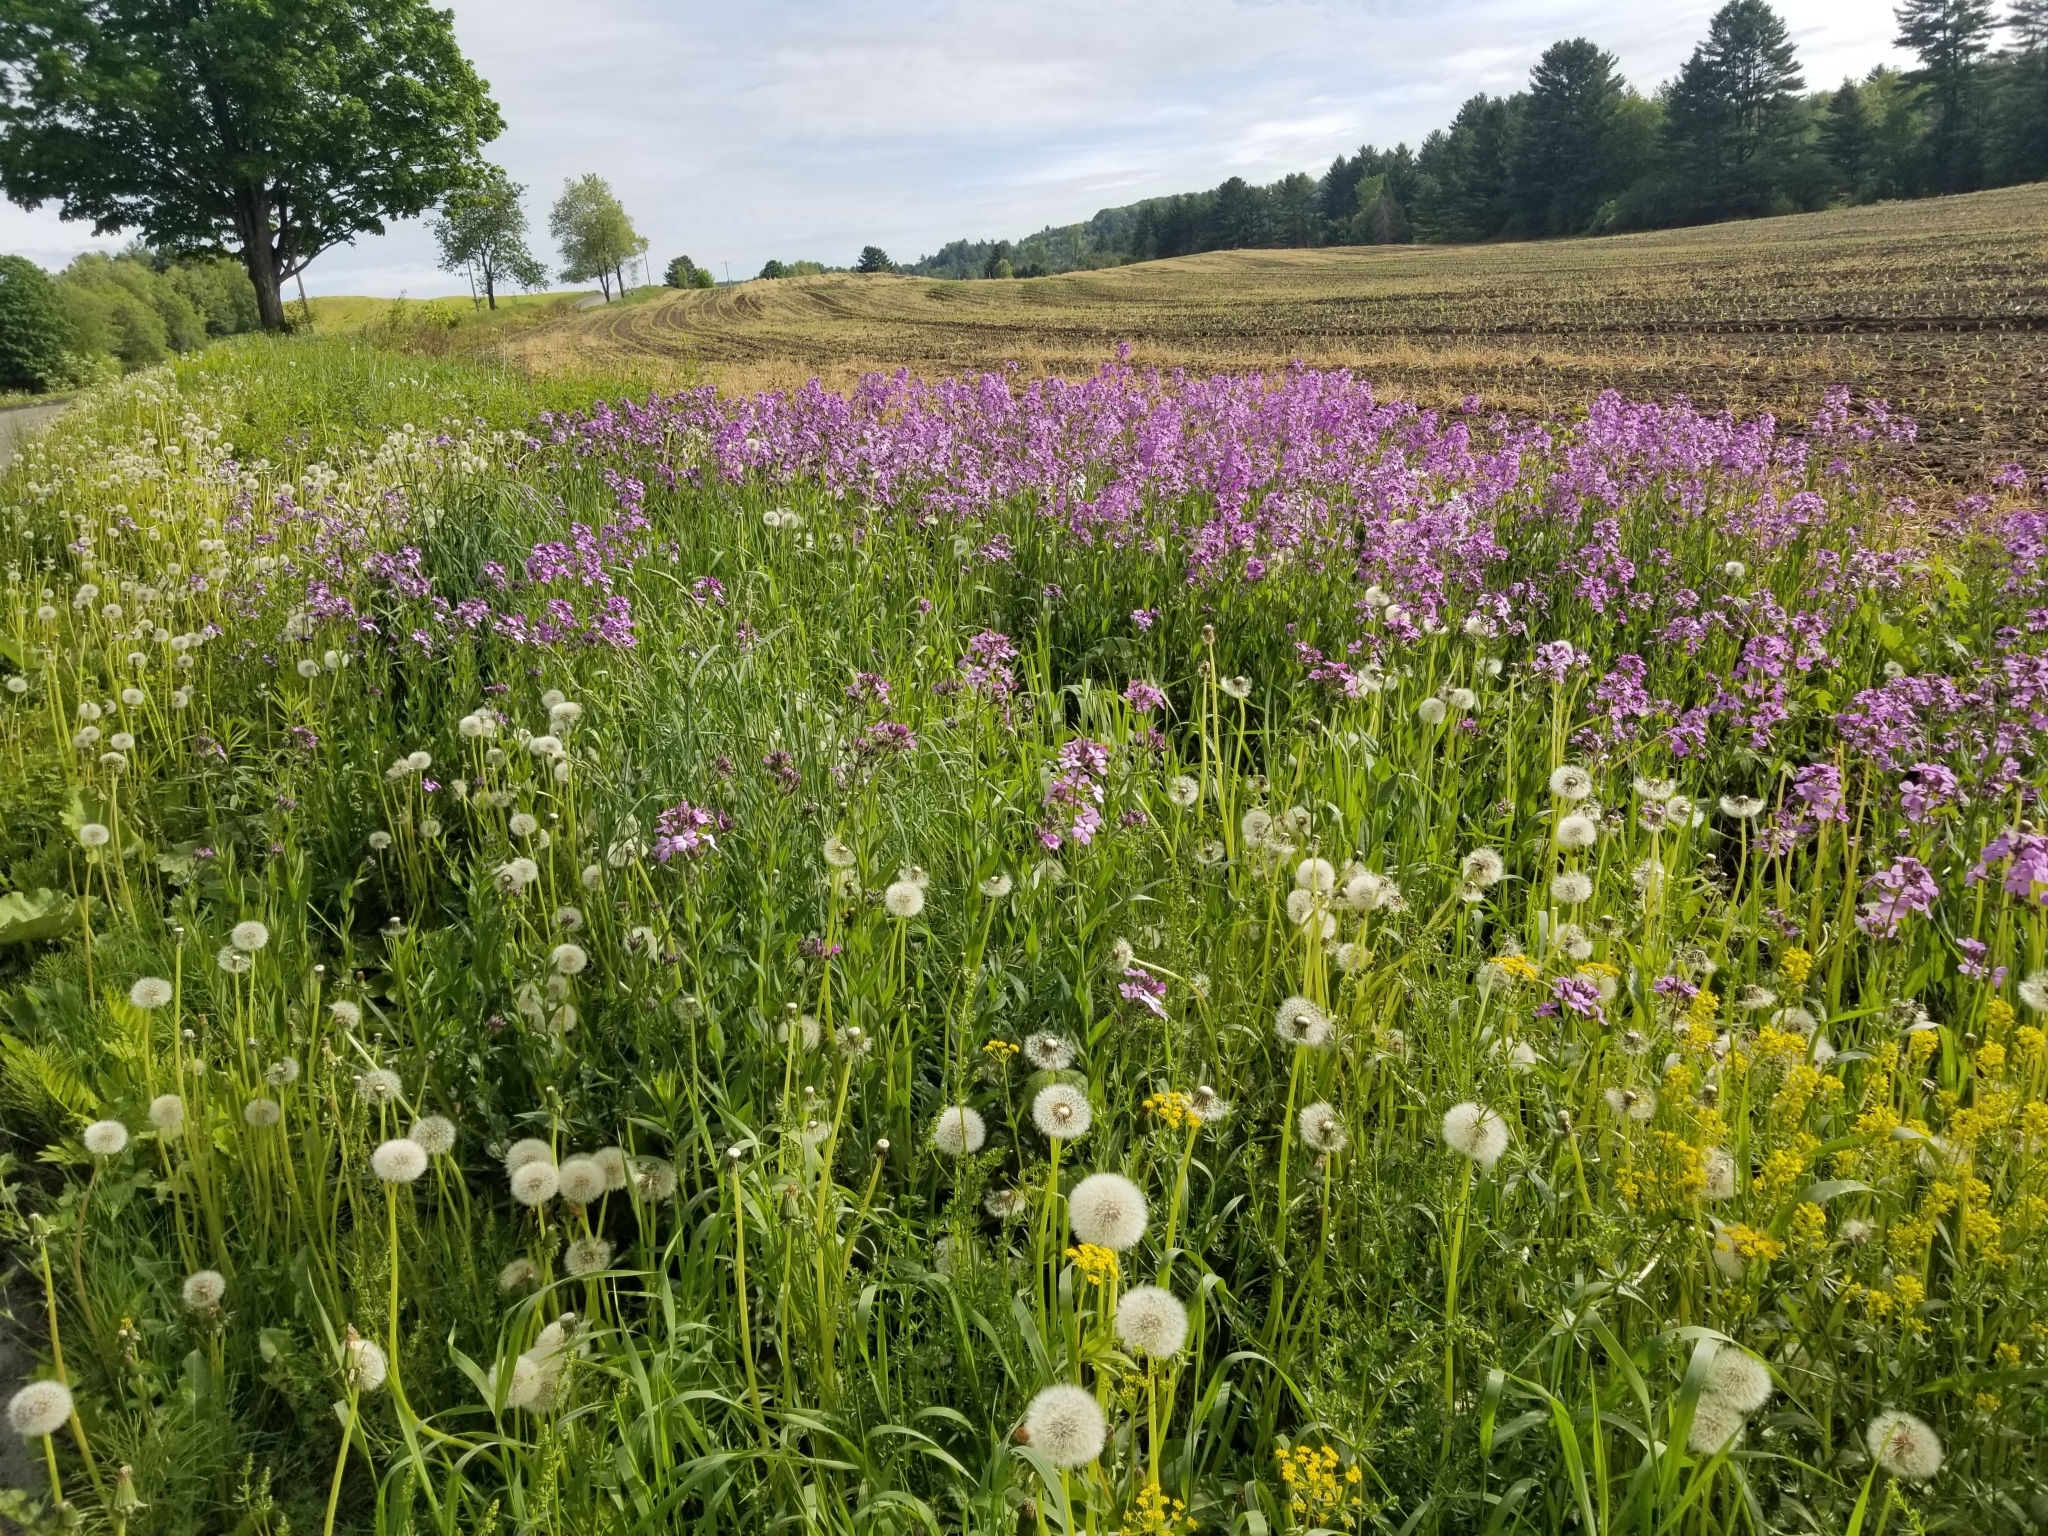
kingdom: Plantae
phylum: Tracheophyta
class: Magnoliopsida
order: Brassicales
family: Brassicaceae
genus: Hesperis
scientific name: Hesperis matronalis
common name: Dame's-violet
